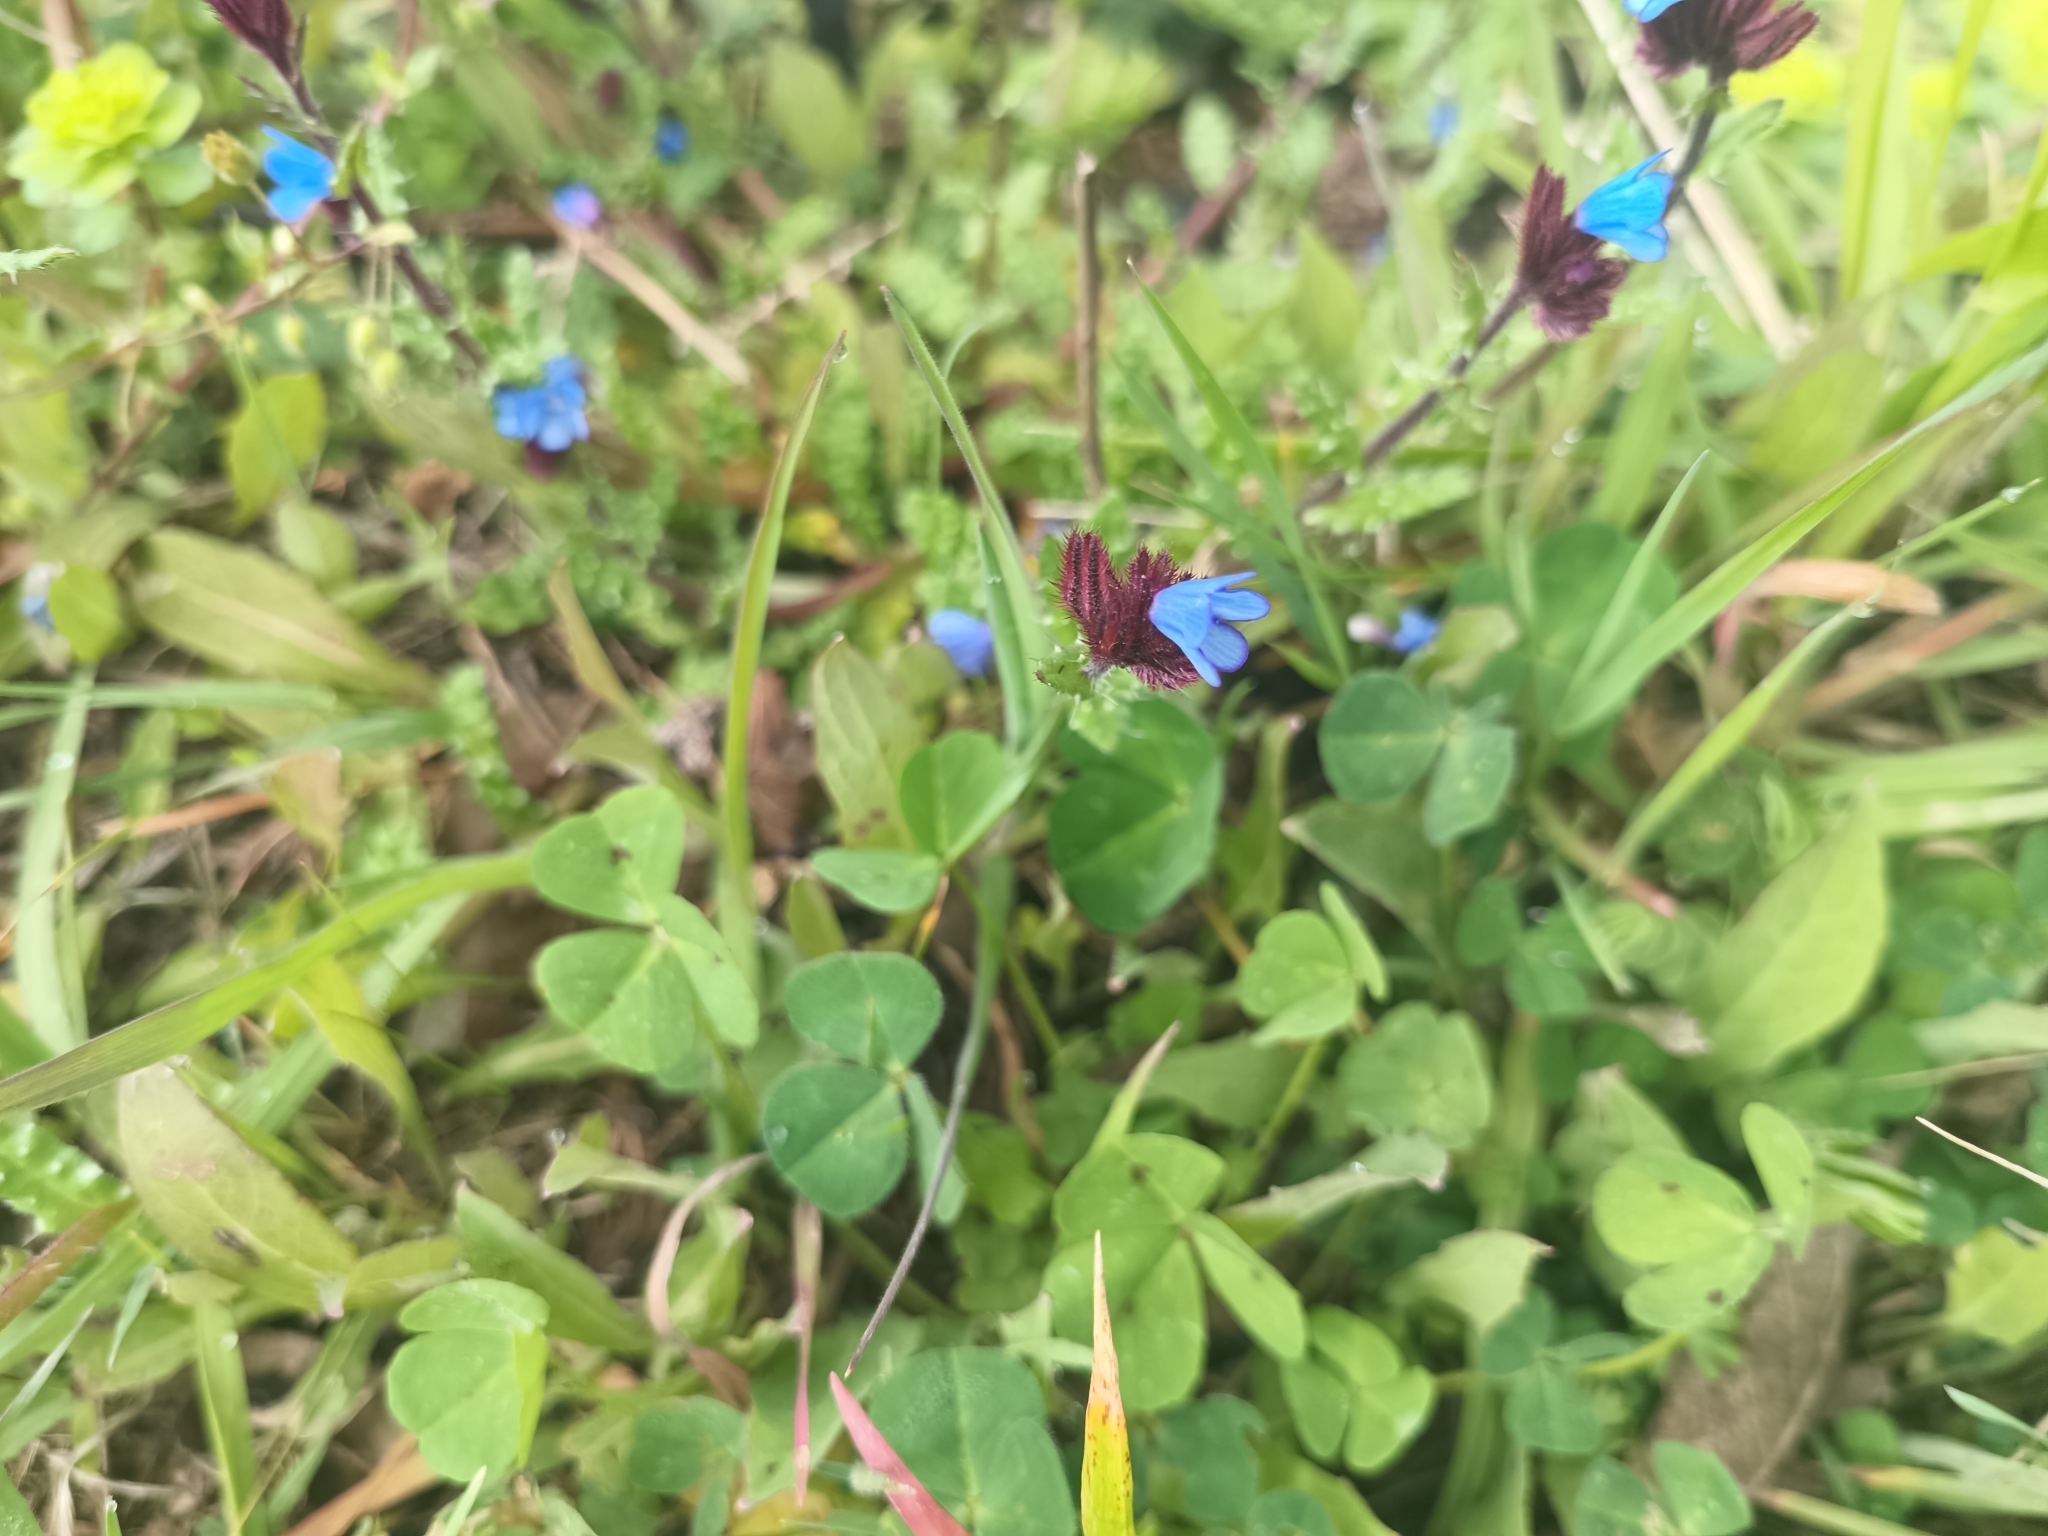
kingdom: Plantae
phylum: Tracheophyta
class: Magnoliopsida
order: Boraginales
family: Boraginaceae
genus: Anchusella
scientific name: Anchusella cretica
